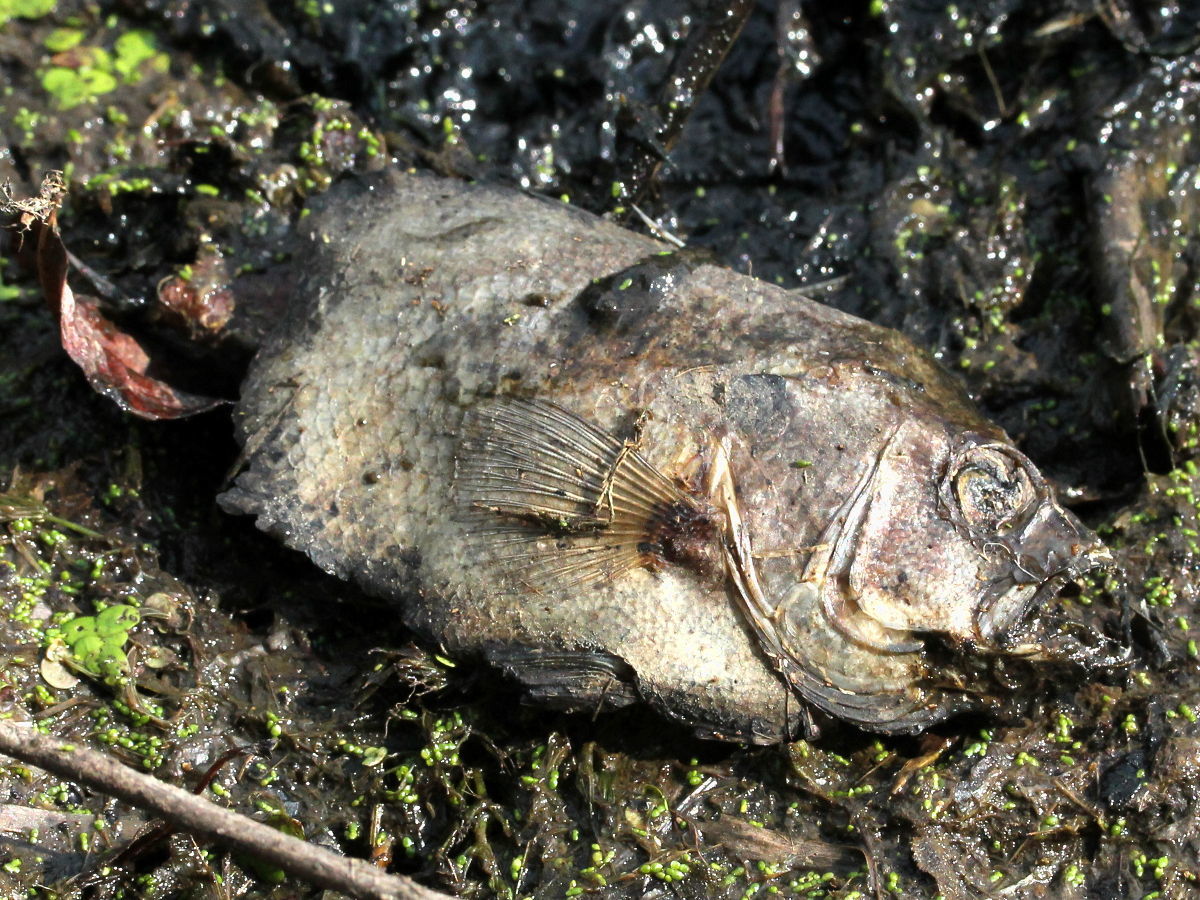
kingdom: Animalia
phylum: Chordata
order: Perciformes
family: Centrarchidae
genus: Lepomis
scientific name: Lepomis
